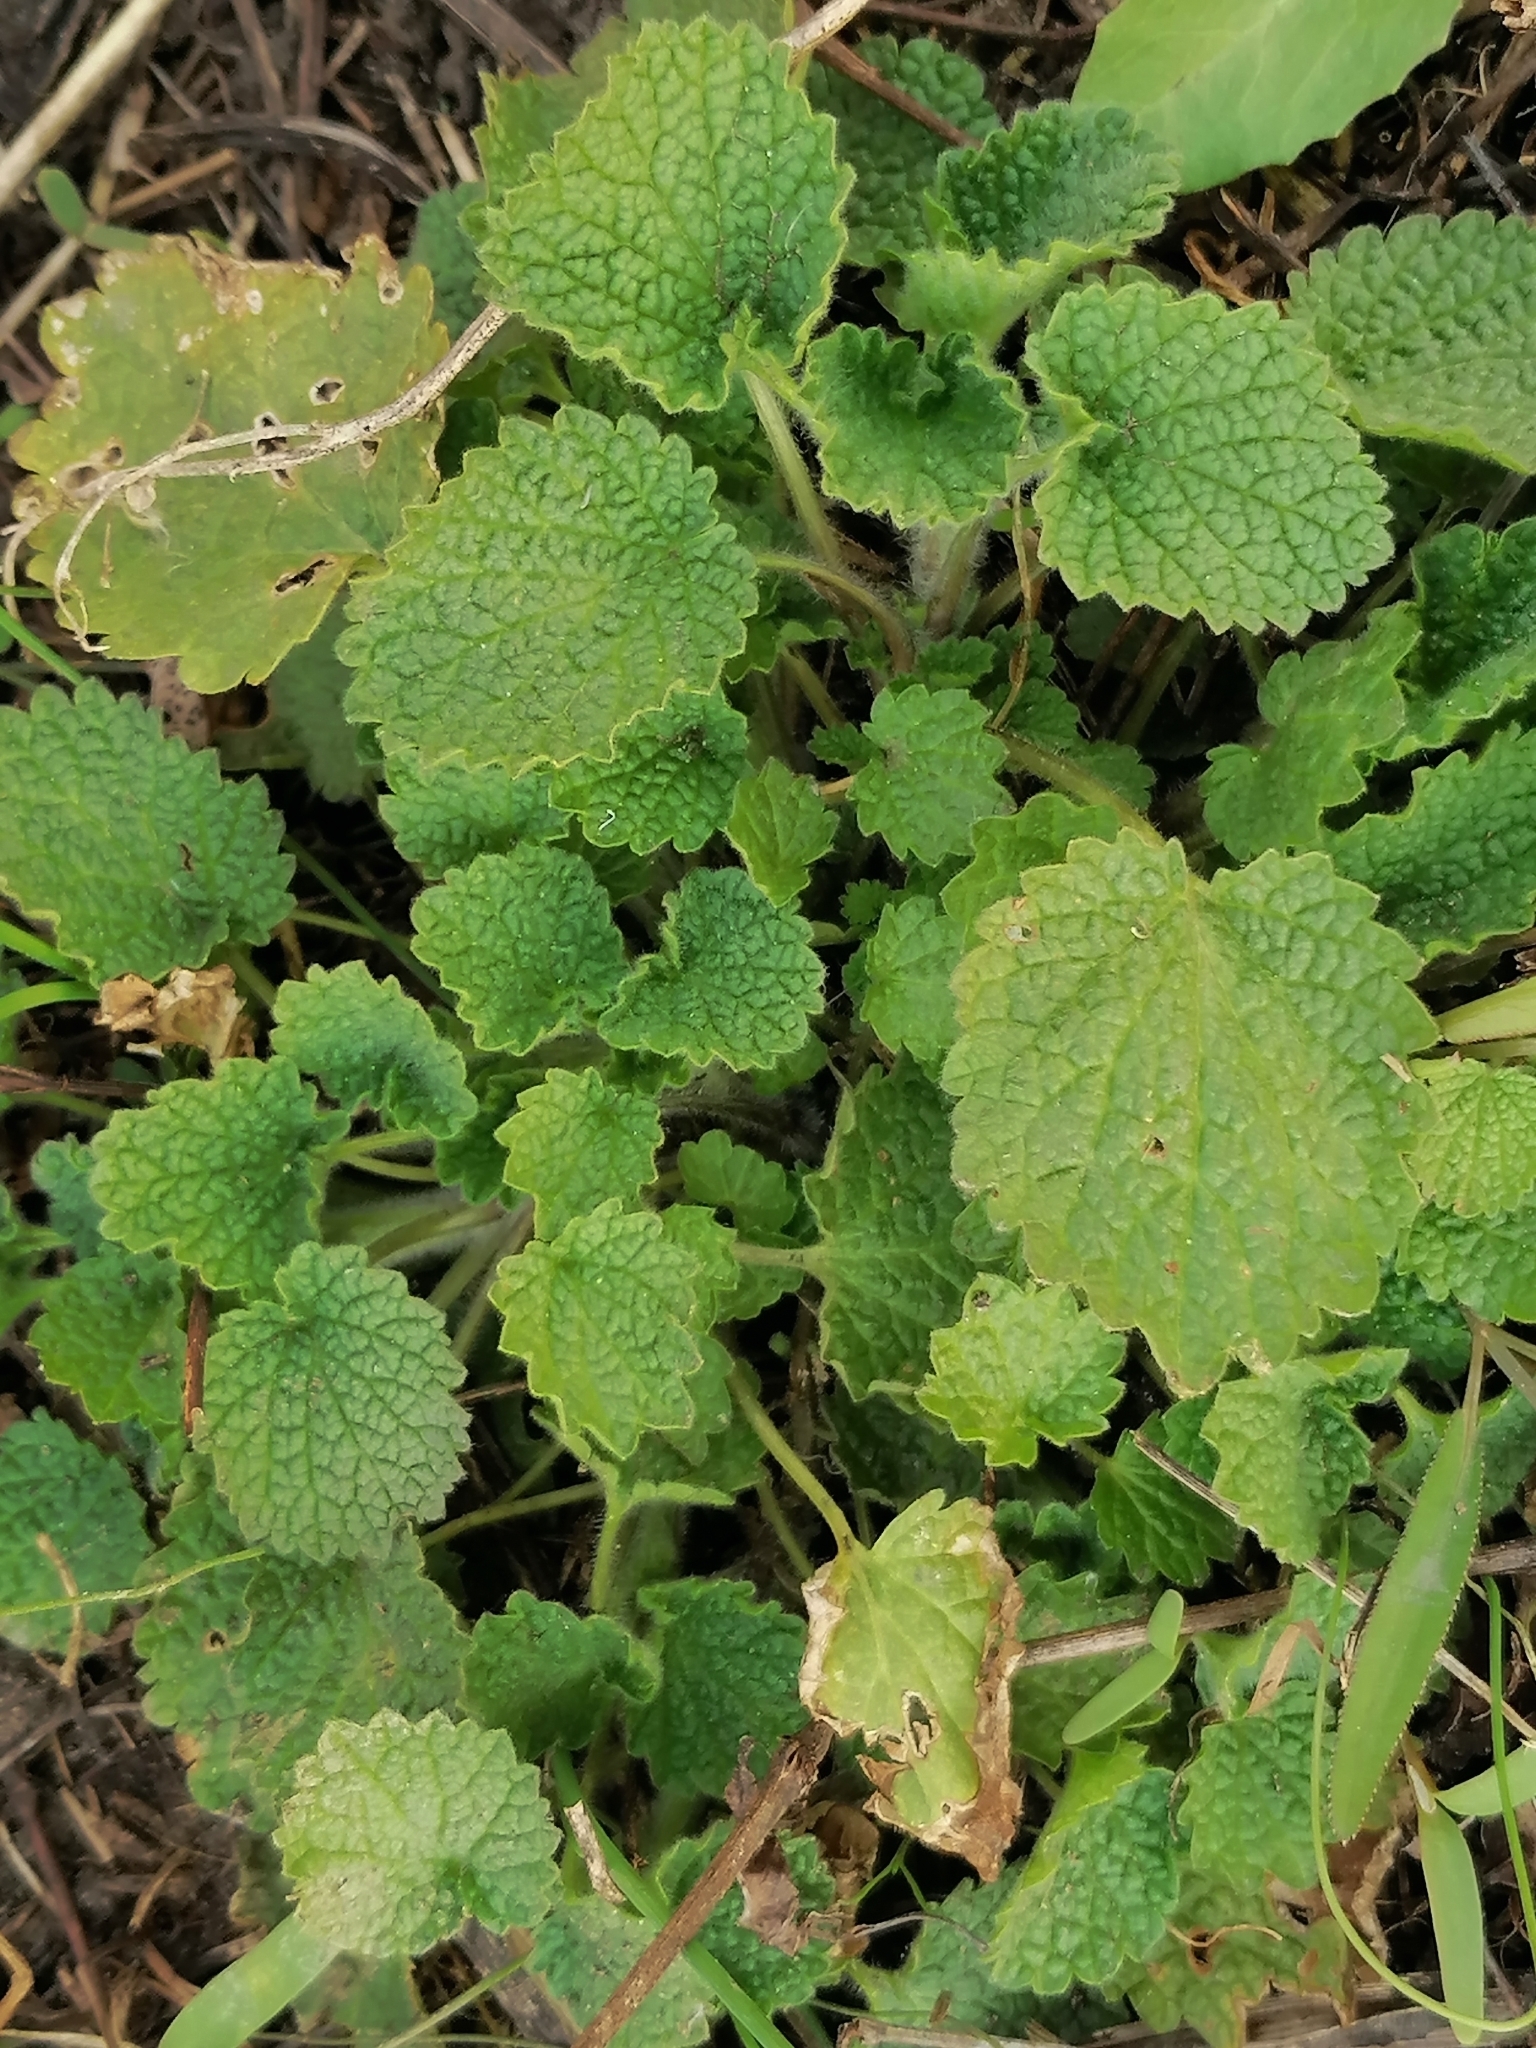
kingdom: Plantae
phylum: Tracheophyta
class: Magnoliopsida
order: Lamiales
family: Lamiaceae
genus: Ballota
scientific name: Ballota nigra
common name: Black horehound
